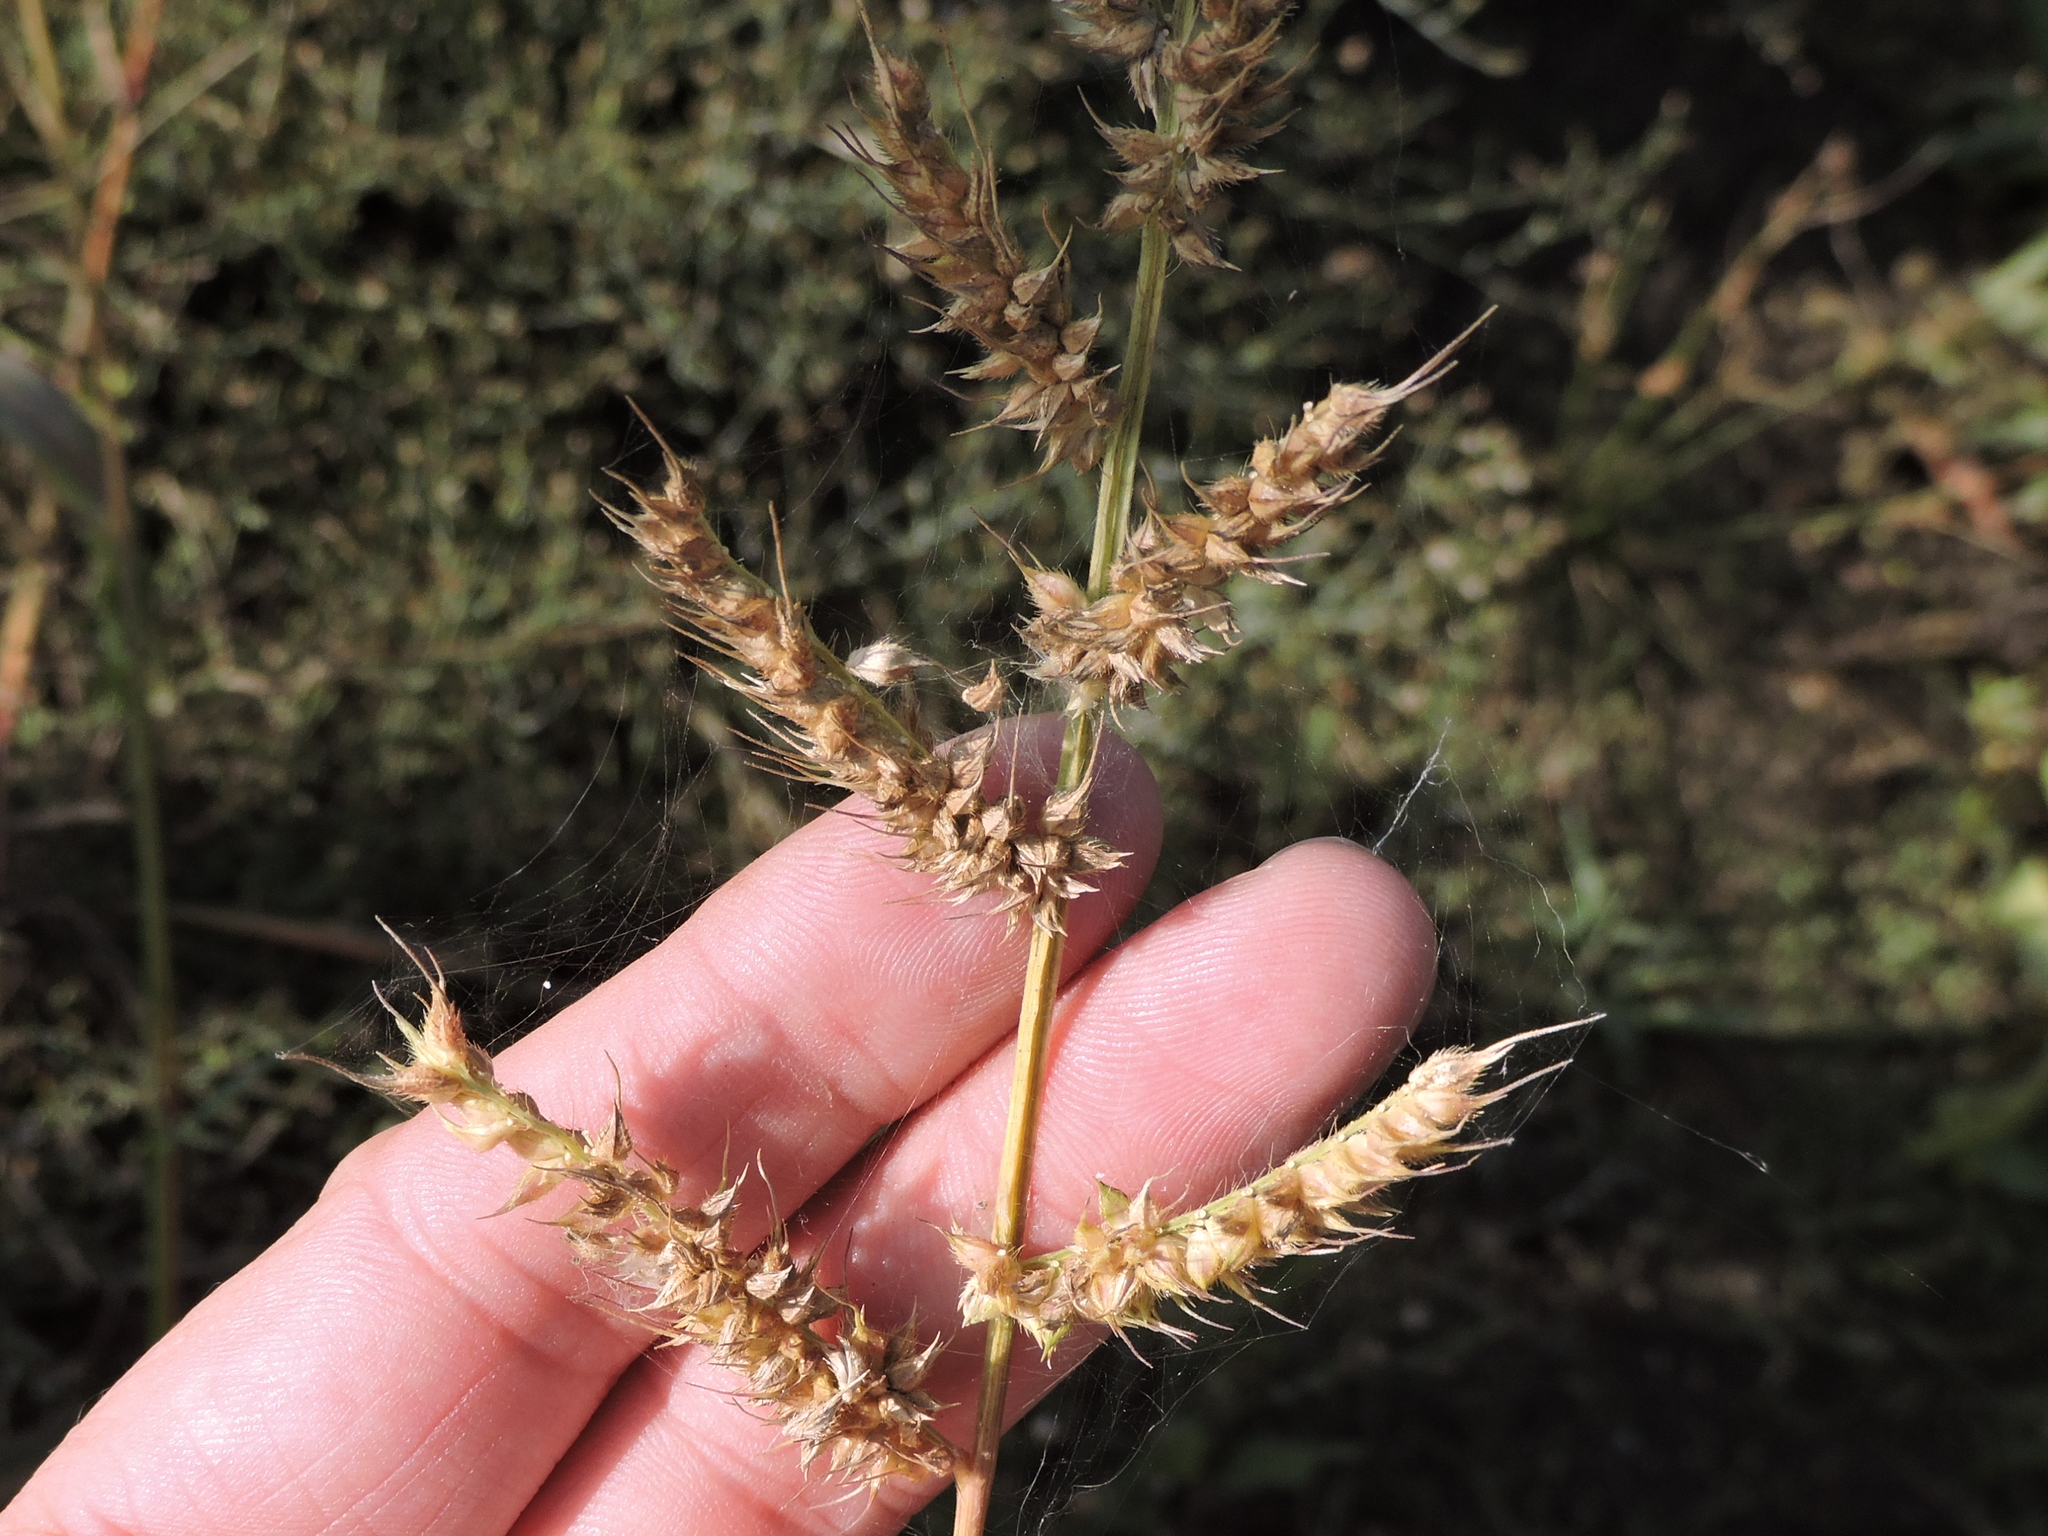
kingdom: Plantae
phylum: Tracheophyta
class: Liliopsida
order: Poales
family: Poaceae
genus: Echinochloa
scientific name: Echinochloa crus-galli
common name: Cockspur
